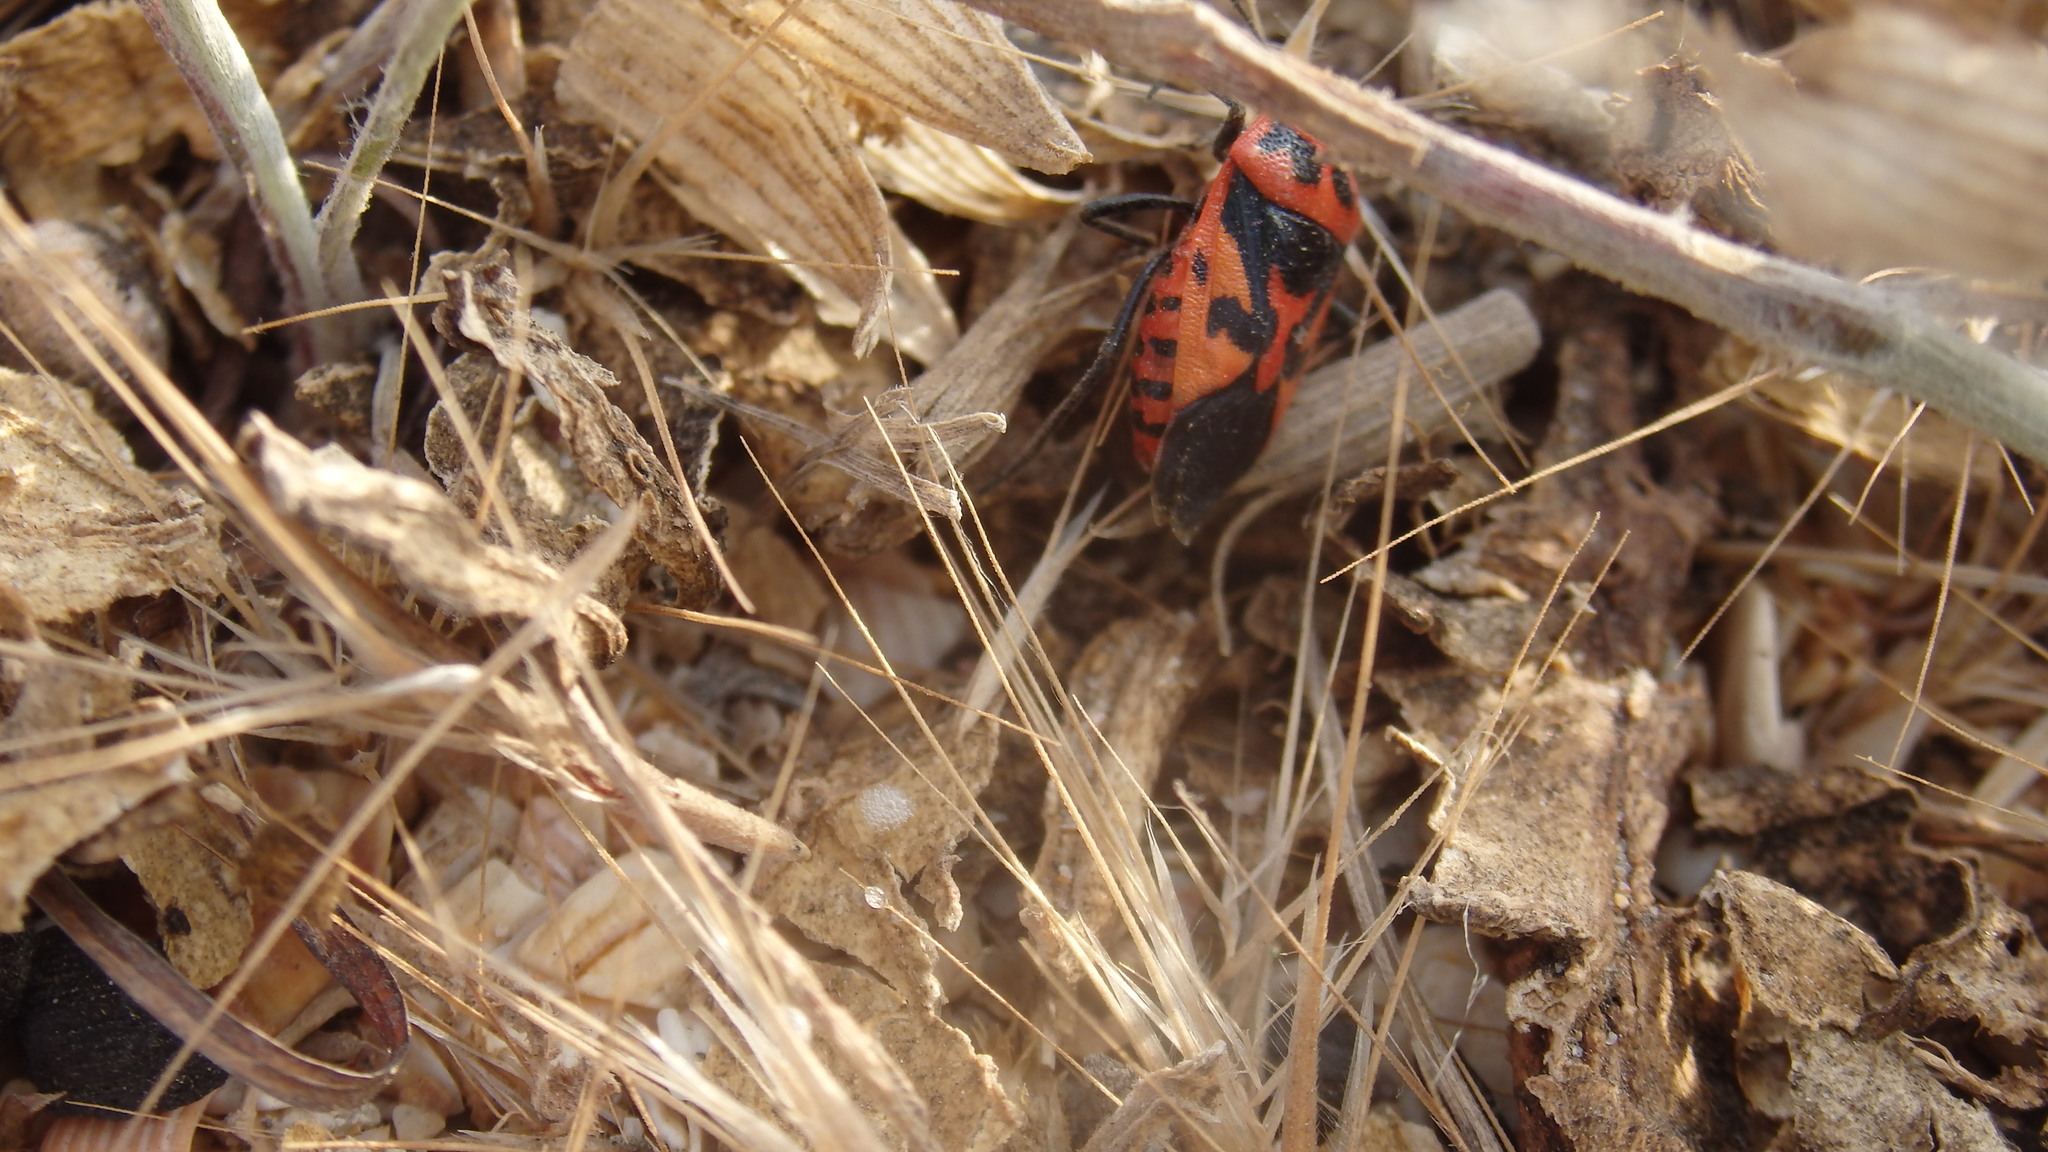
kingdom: Animalia
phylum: Arthropoda
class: Insecta
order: Hemiptera
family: Pentatomidae
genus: Eurydema
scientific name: Eurydema ventralis
